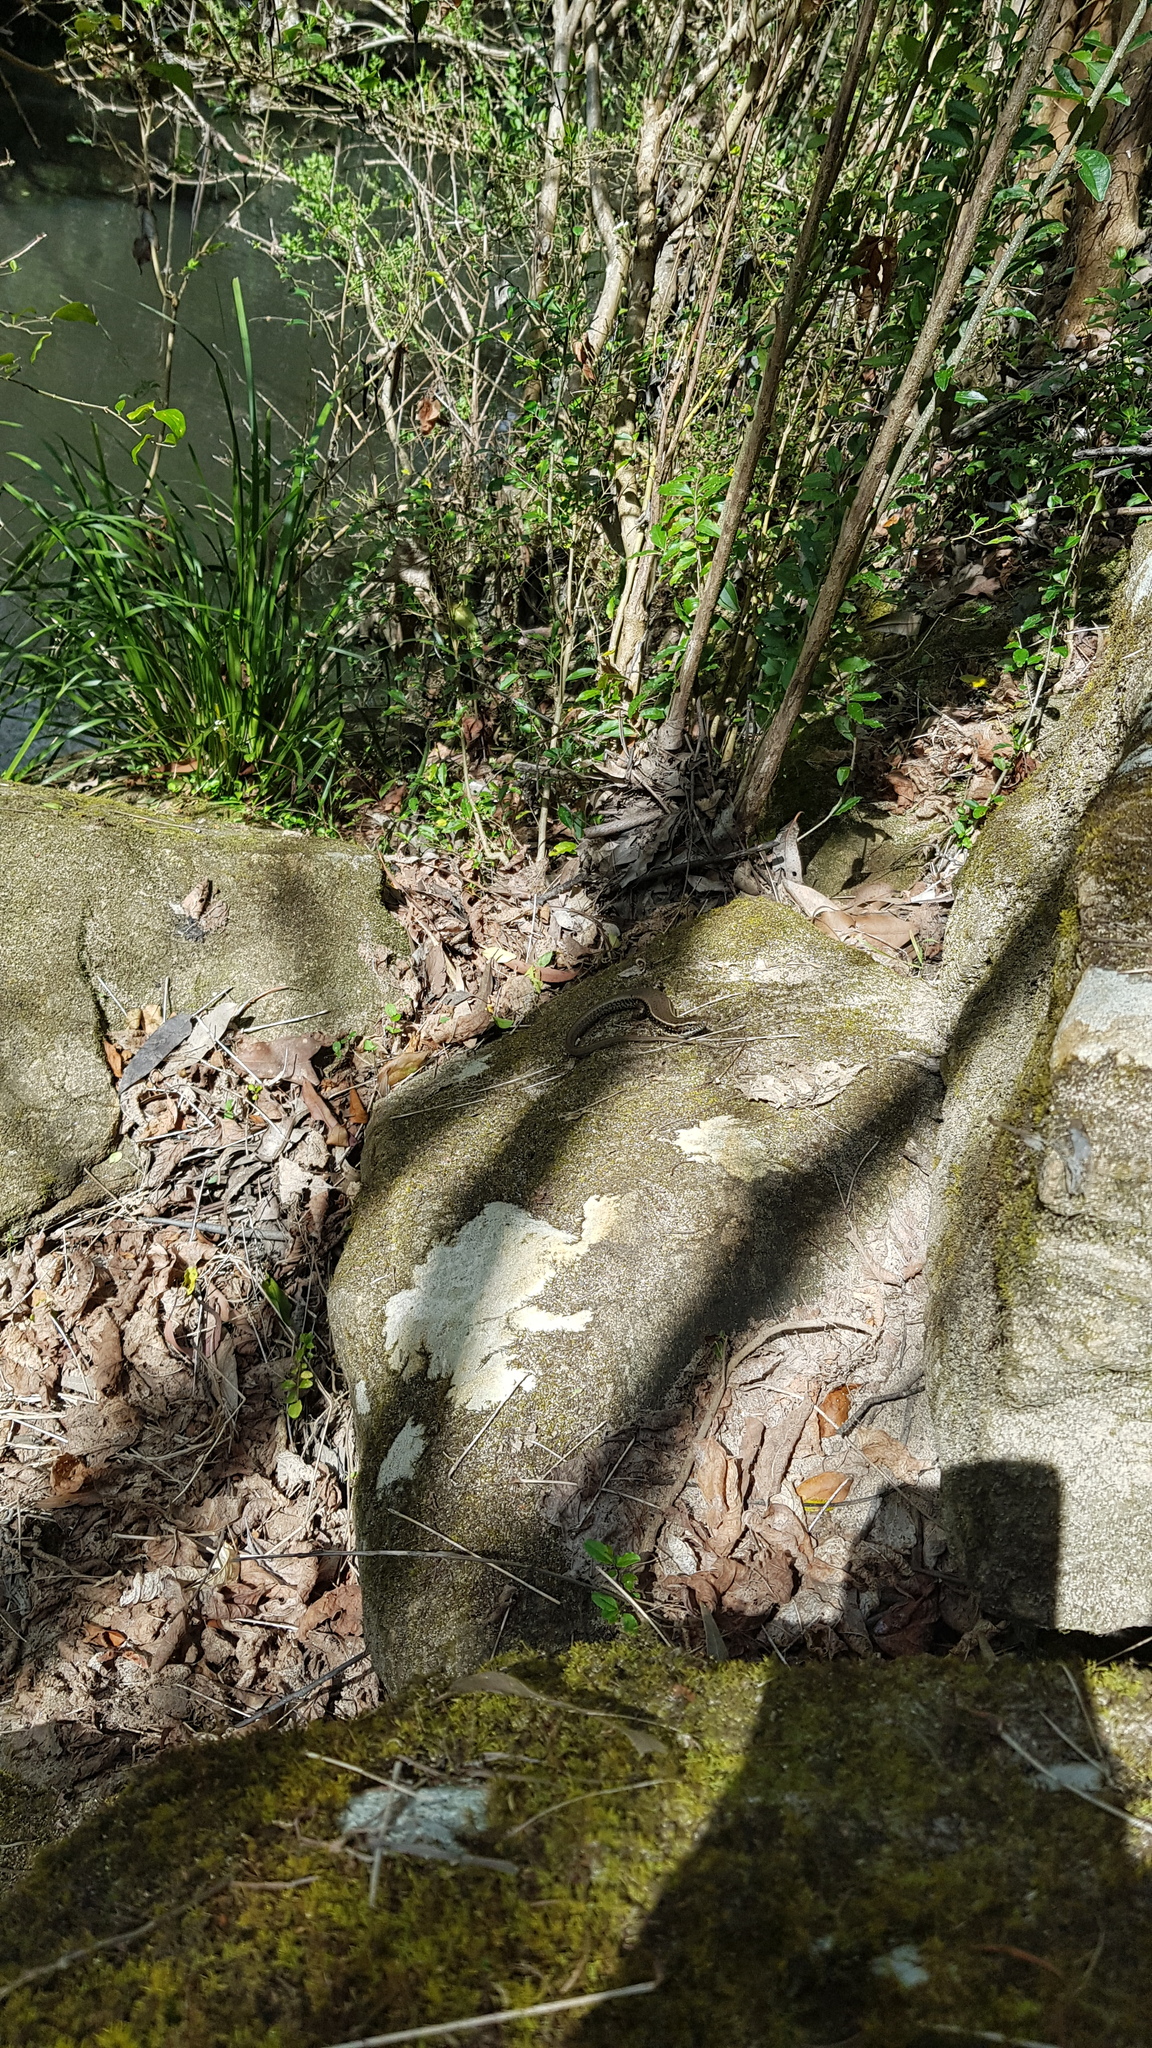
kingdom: Animalia
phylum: Chordata
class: Squamata
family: Scincidae
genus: Eulamprus
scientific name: Eulamprus quoyii
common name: Eastern water skink
